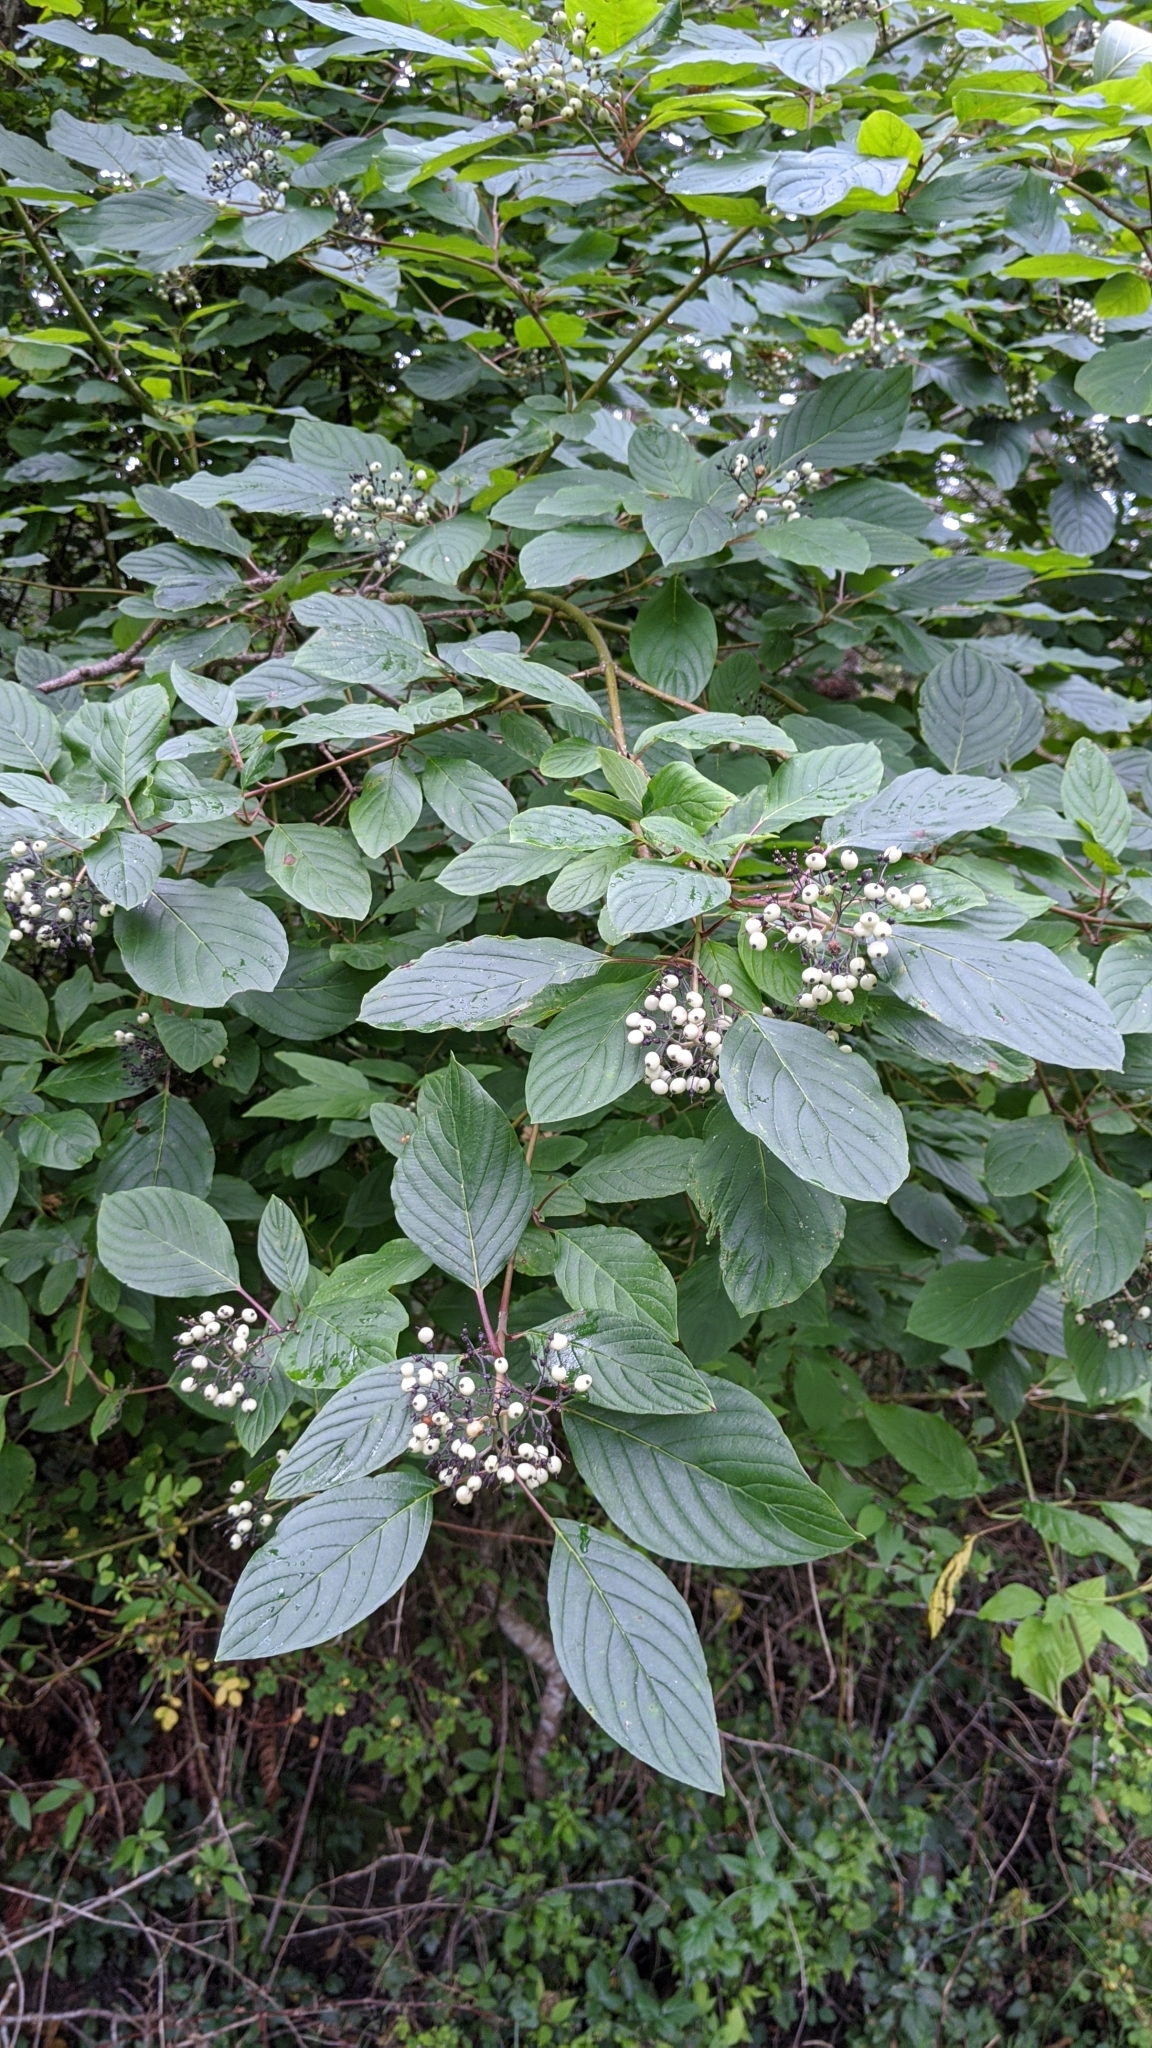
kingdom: Plantae
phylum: Tracheophyta
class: Magnoliopsida
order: Cornales
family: Cornaceae
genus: Cornus
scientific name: Cornus sericea
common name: Red-osier dogwood
